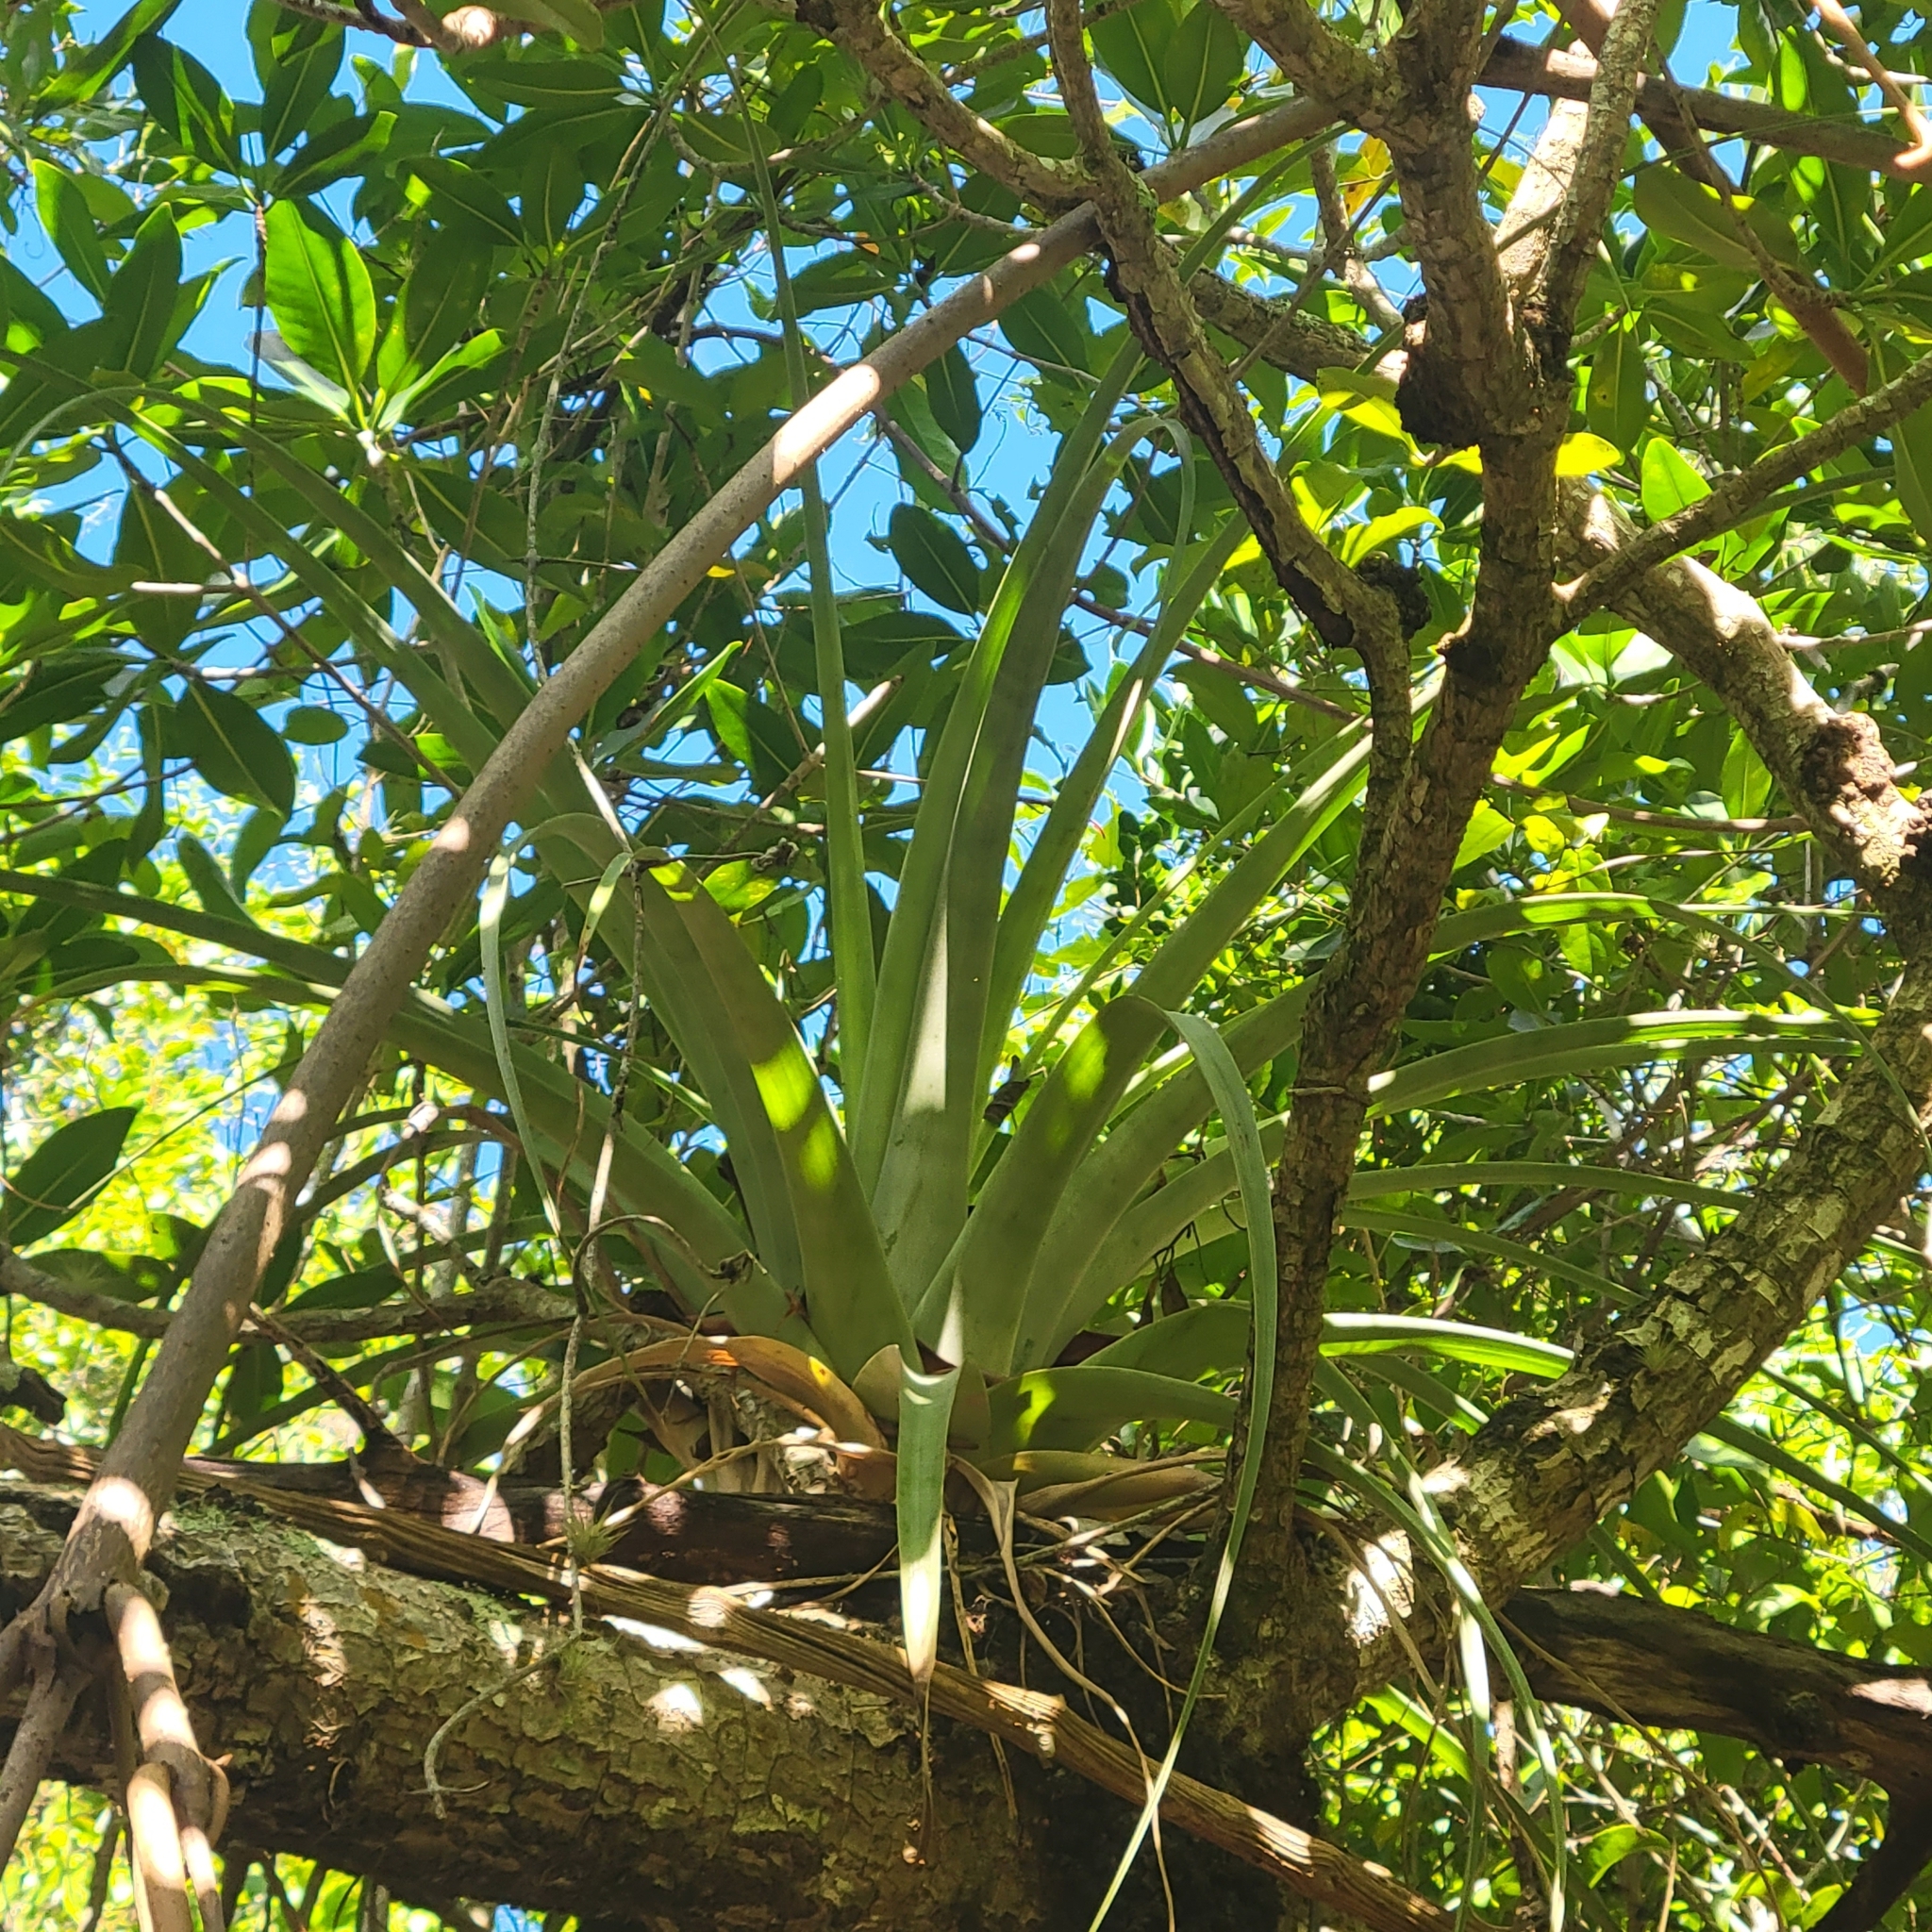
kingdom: Plantae
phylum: Tracheophyta
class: Liliopsida
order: Poales
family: Bromeliaceae
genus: Tillandsia
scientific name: Tillandsia utriculata
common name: Wild pine
